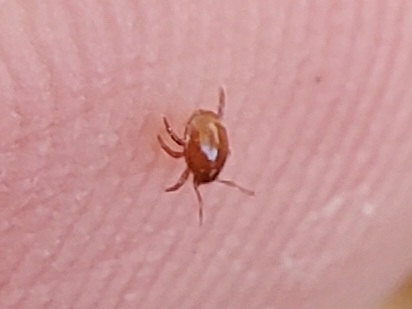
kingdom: Animalia
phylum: Arthropoda
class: Arachnida
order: Mesostigmata
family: Euzerconidae
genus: Euzercon
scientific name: Euzercon
